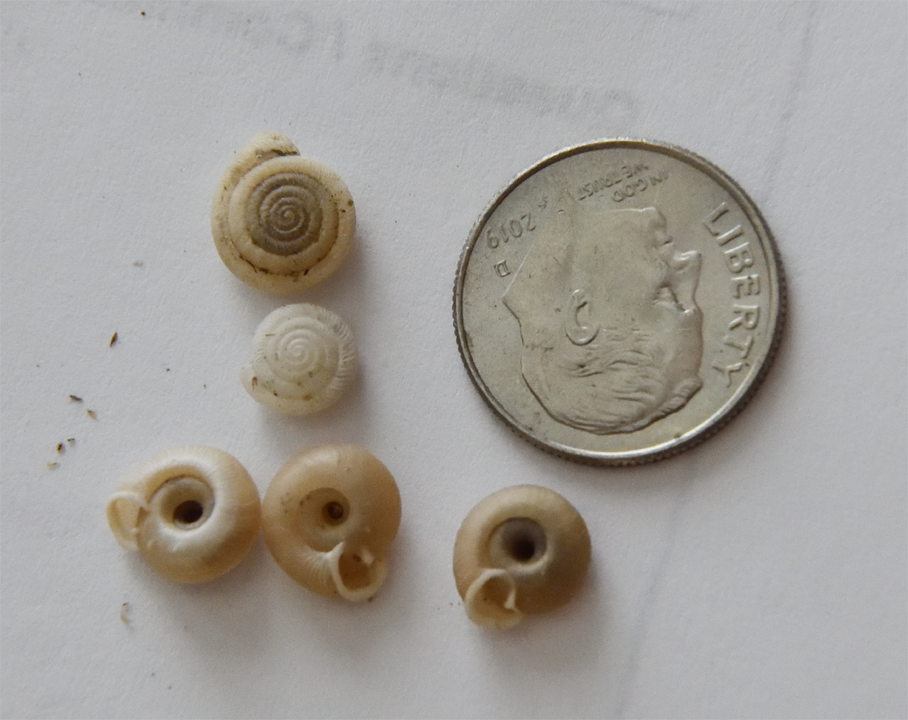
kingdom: Animalia
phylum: Mollusca
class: Gastropoda
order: Stylommatophora
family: Polygyridae
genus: Polygyra
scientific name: Polygyra cereolus
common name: Southern flatcone snail
